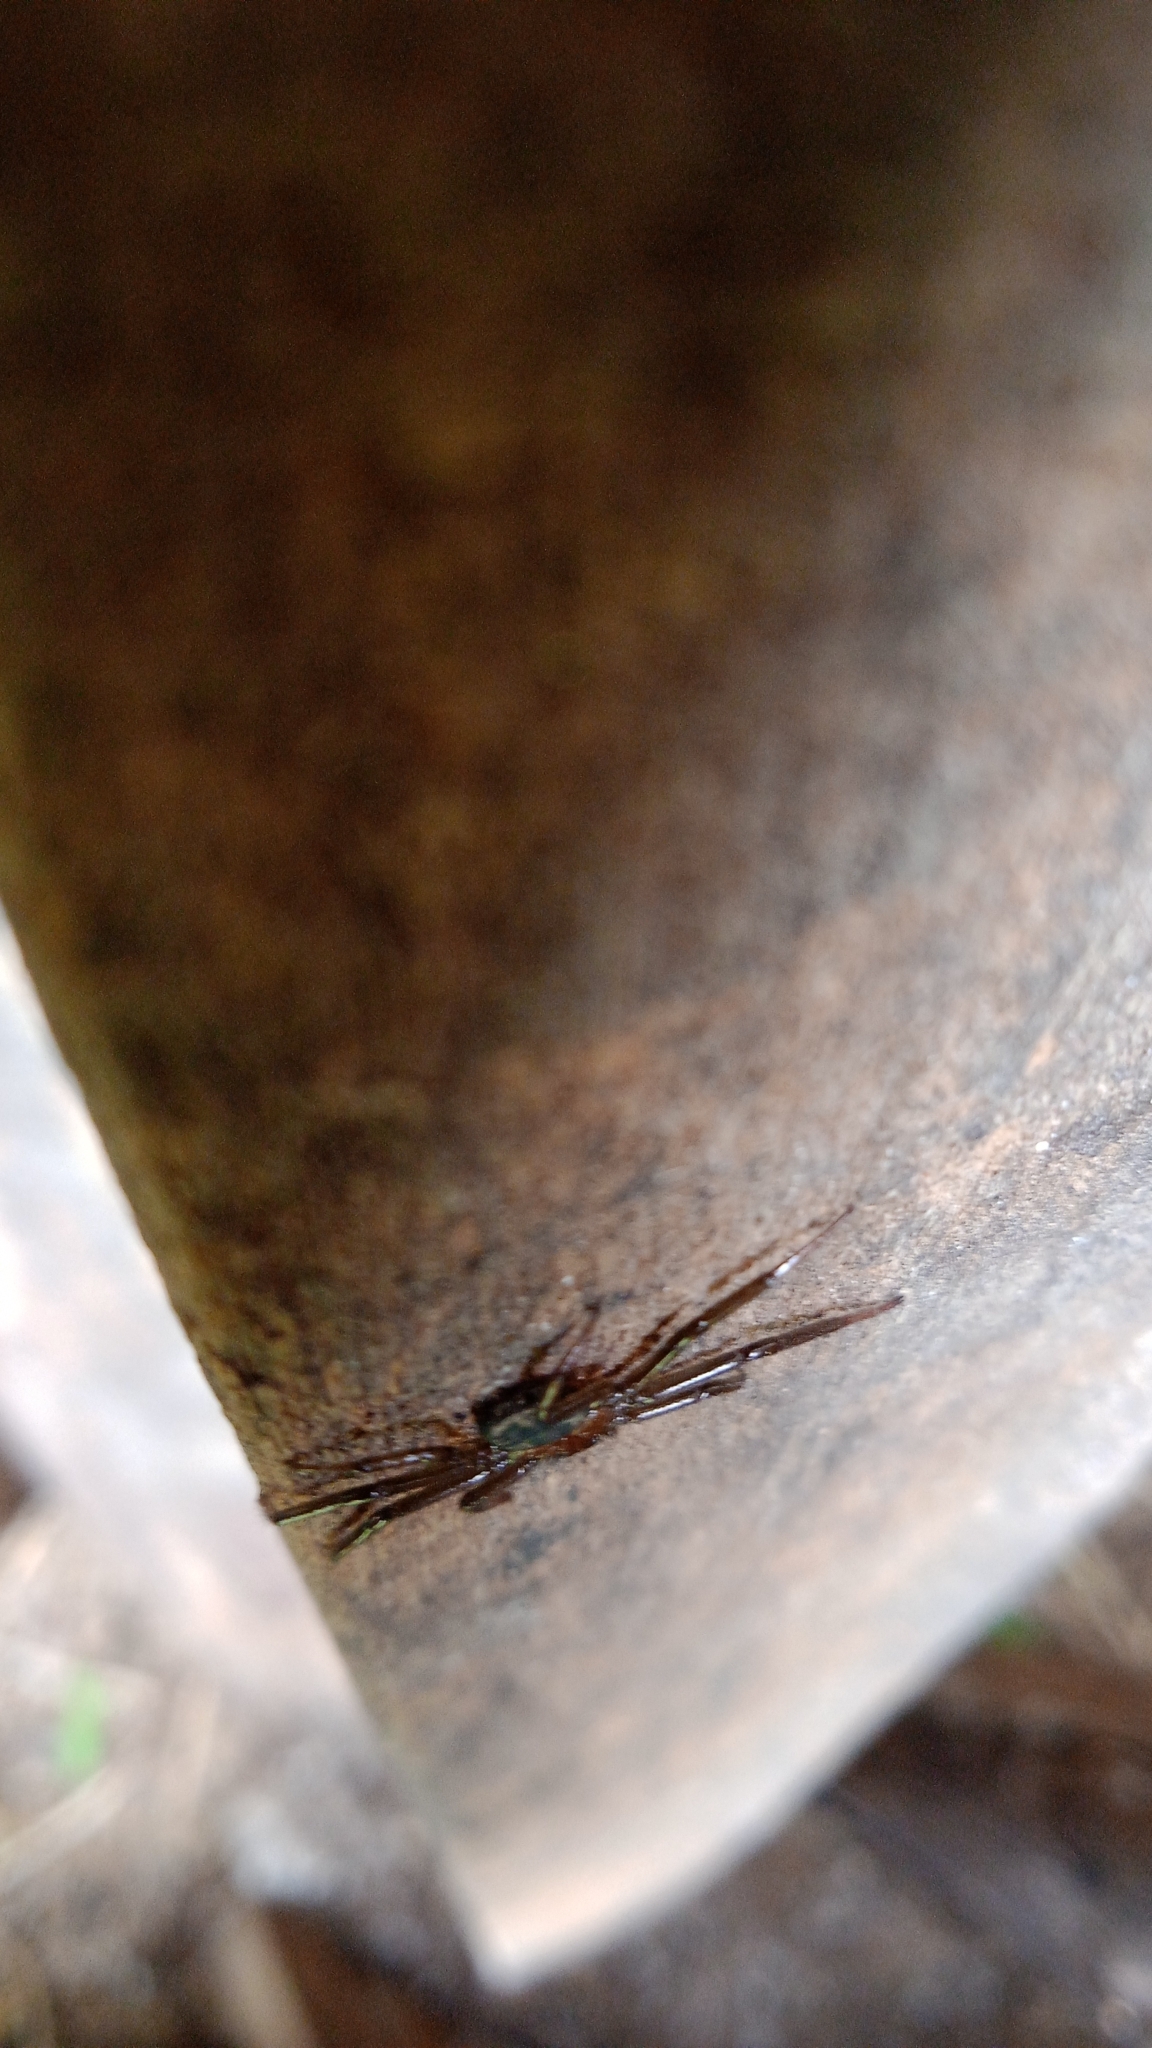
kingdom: Animalia
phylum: Arthropoda
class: Arachnida
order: Araneae
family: Trochanteriidae
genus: Vectius
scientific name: Vectius niger
